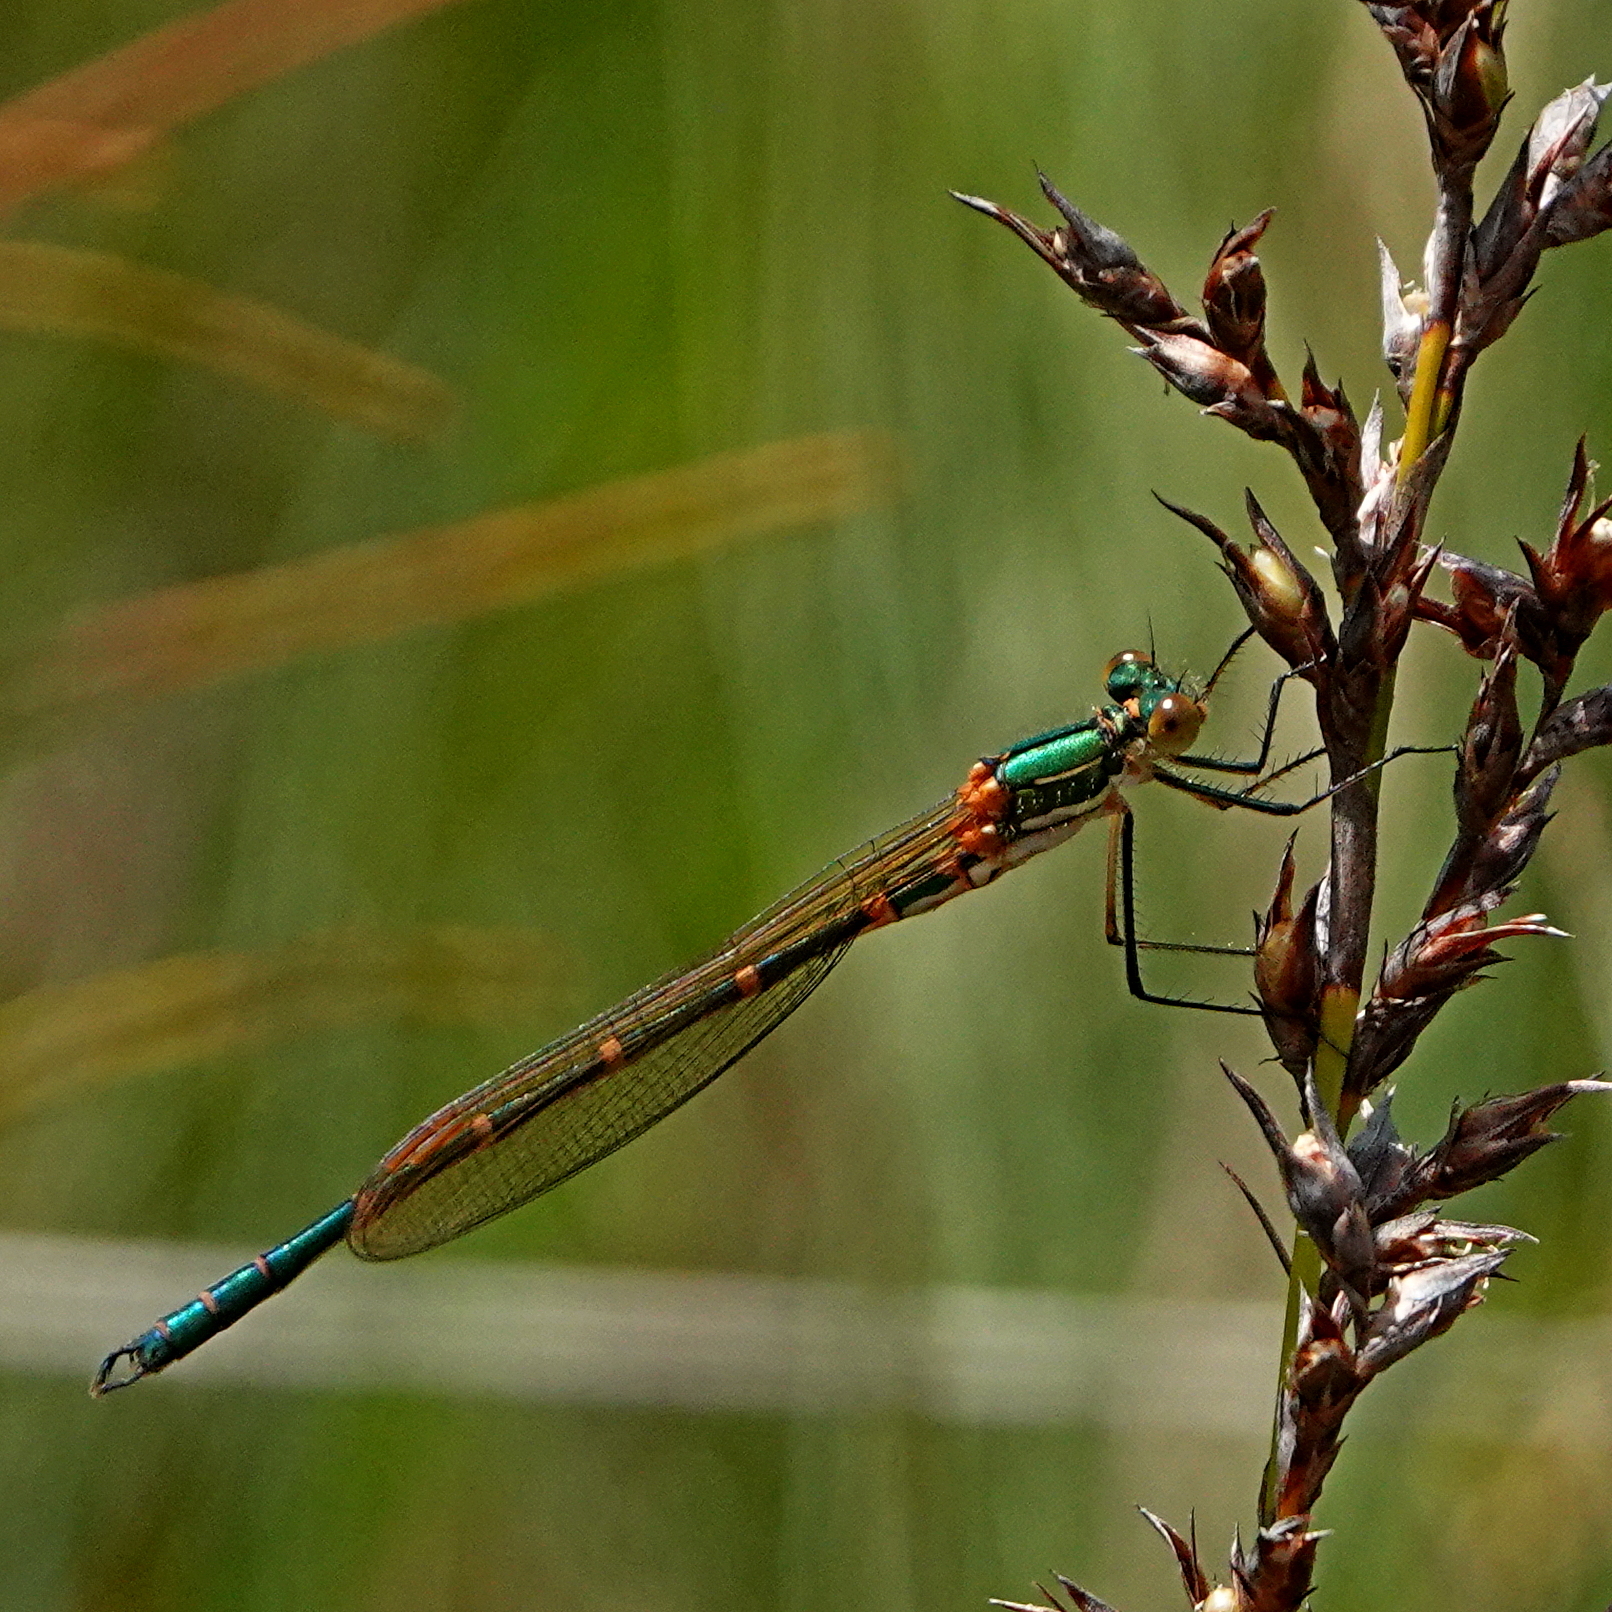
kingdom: Animalia
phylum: Arthropoda
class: Insecta
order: Odonata
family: Lestidae
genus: Austrolestes
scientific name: Austrolestes cingulatus
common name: Metallic ringtail
